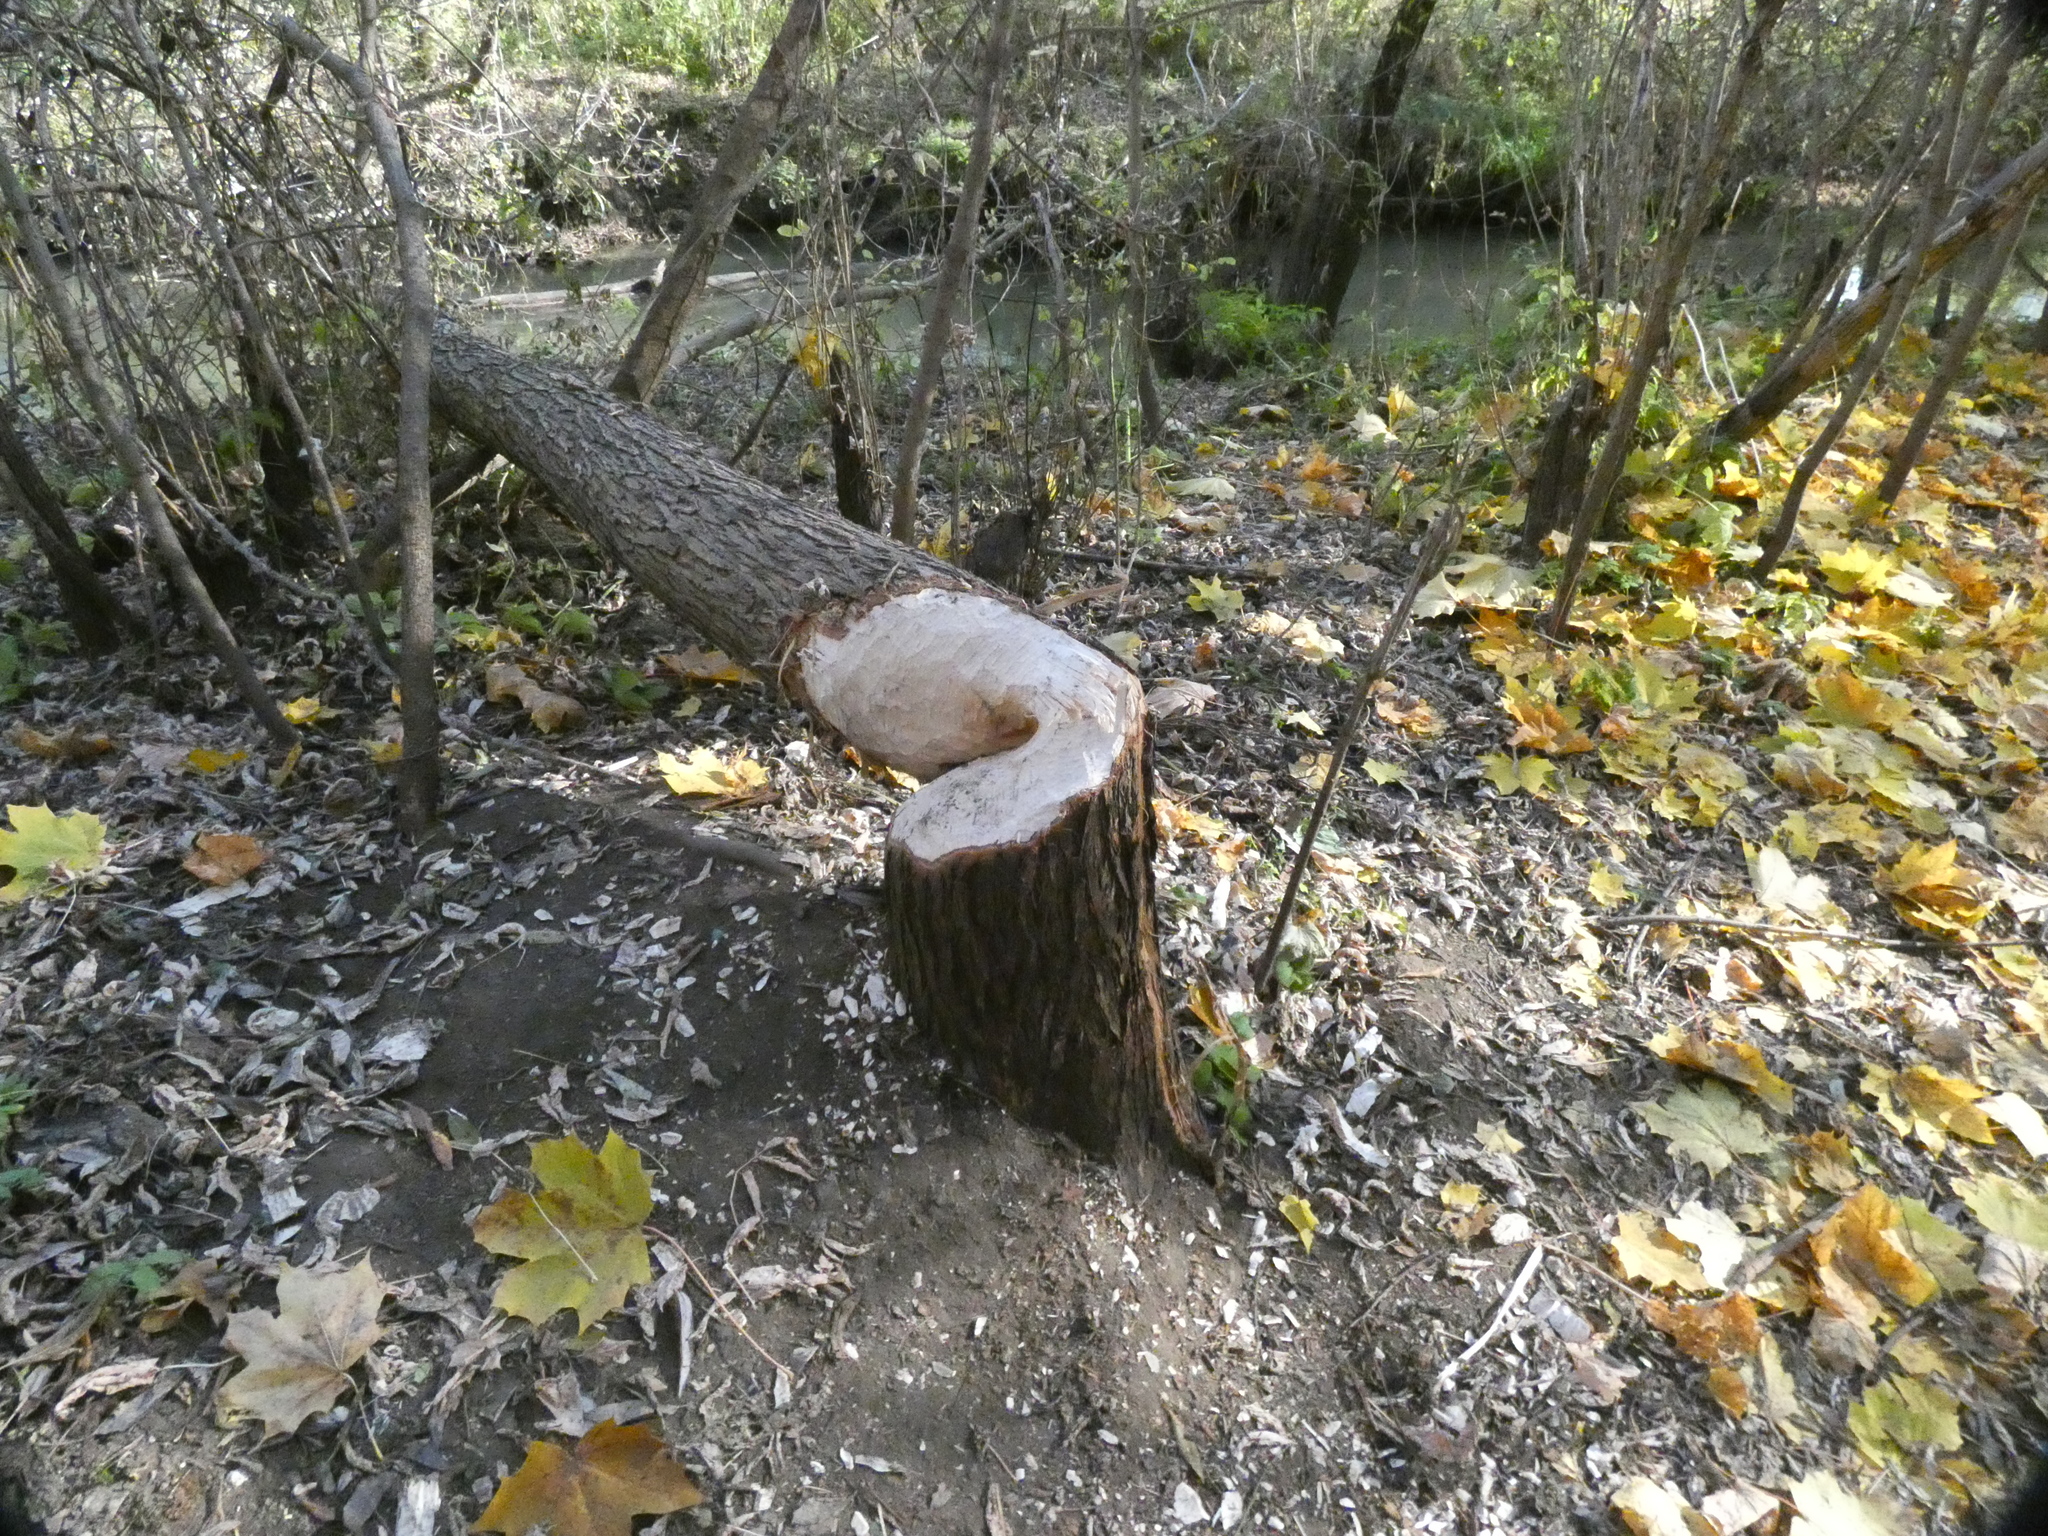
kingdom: Animalia
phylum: Chordata
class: Mammalia
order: Rodentia
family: Castoridae
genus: Castor
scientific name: Castor fiber
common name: Eurasian beaver
